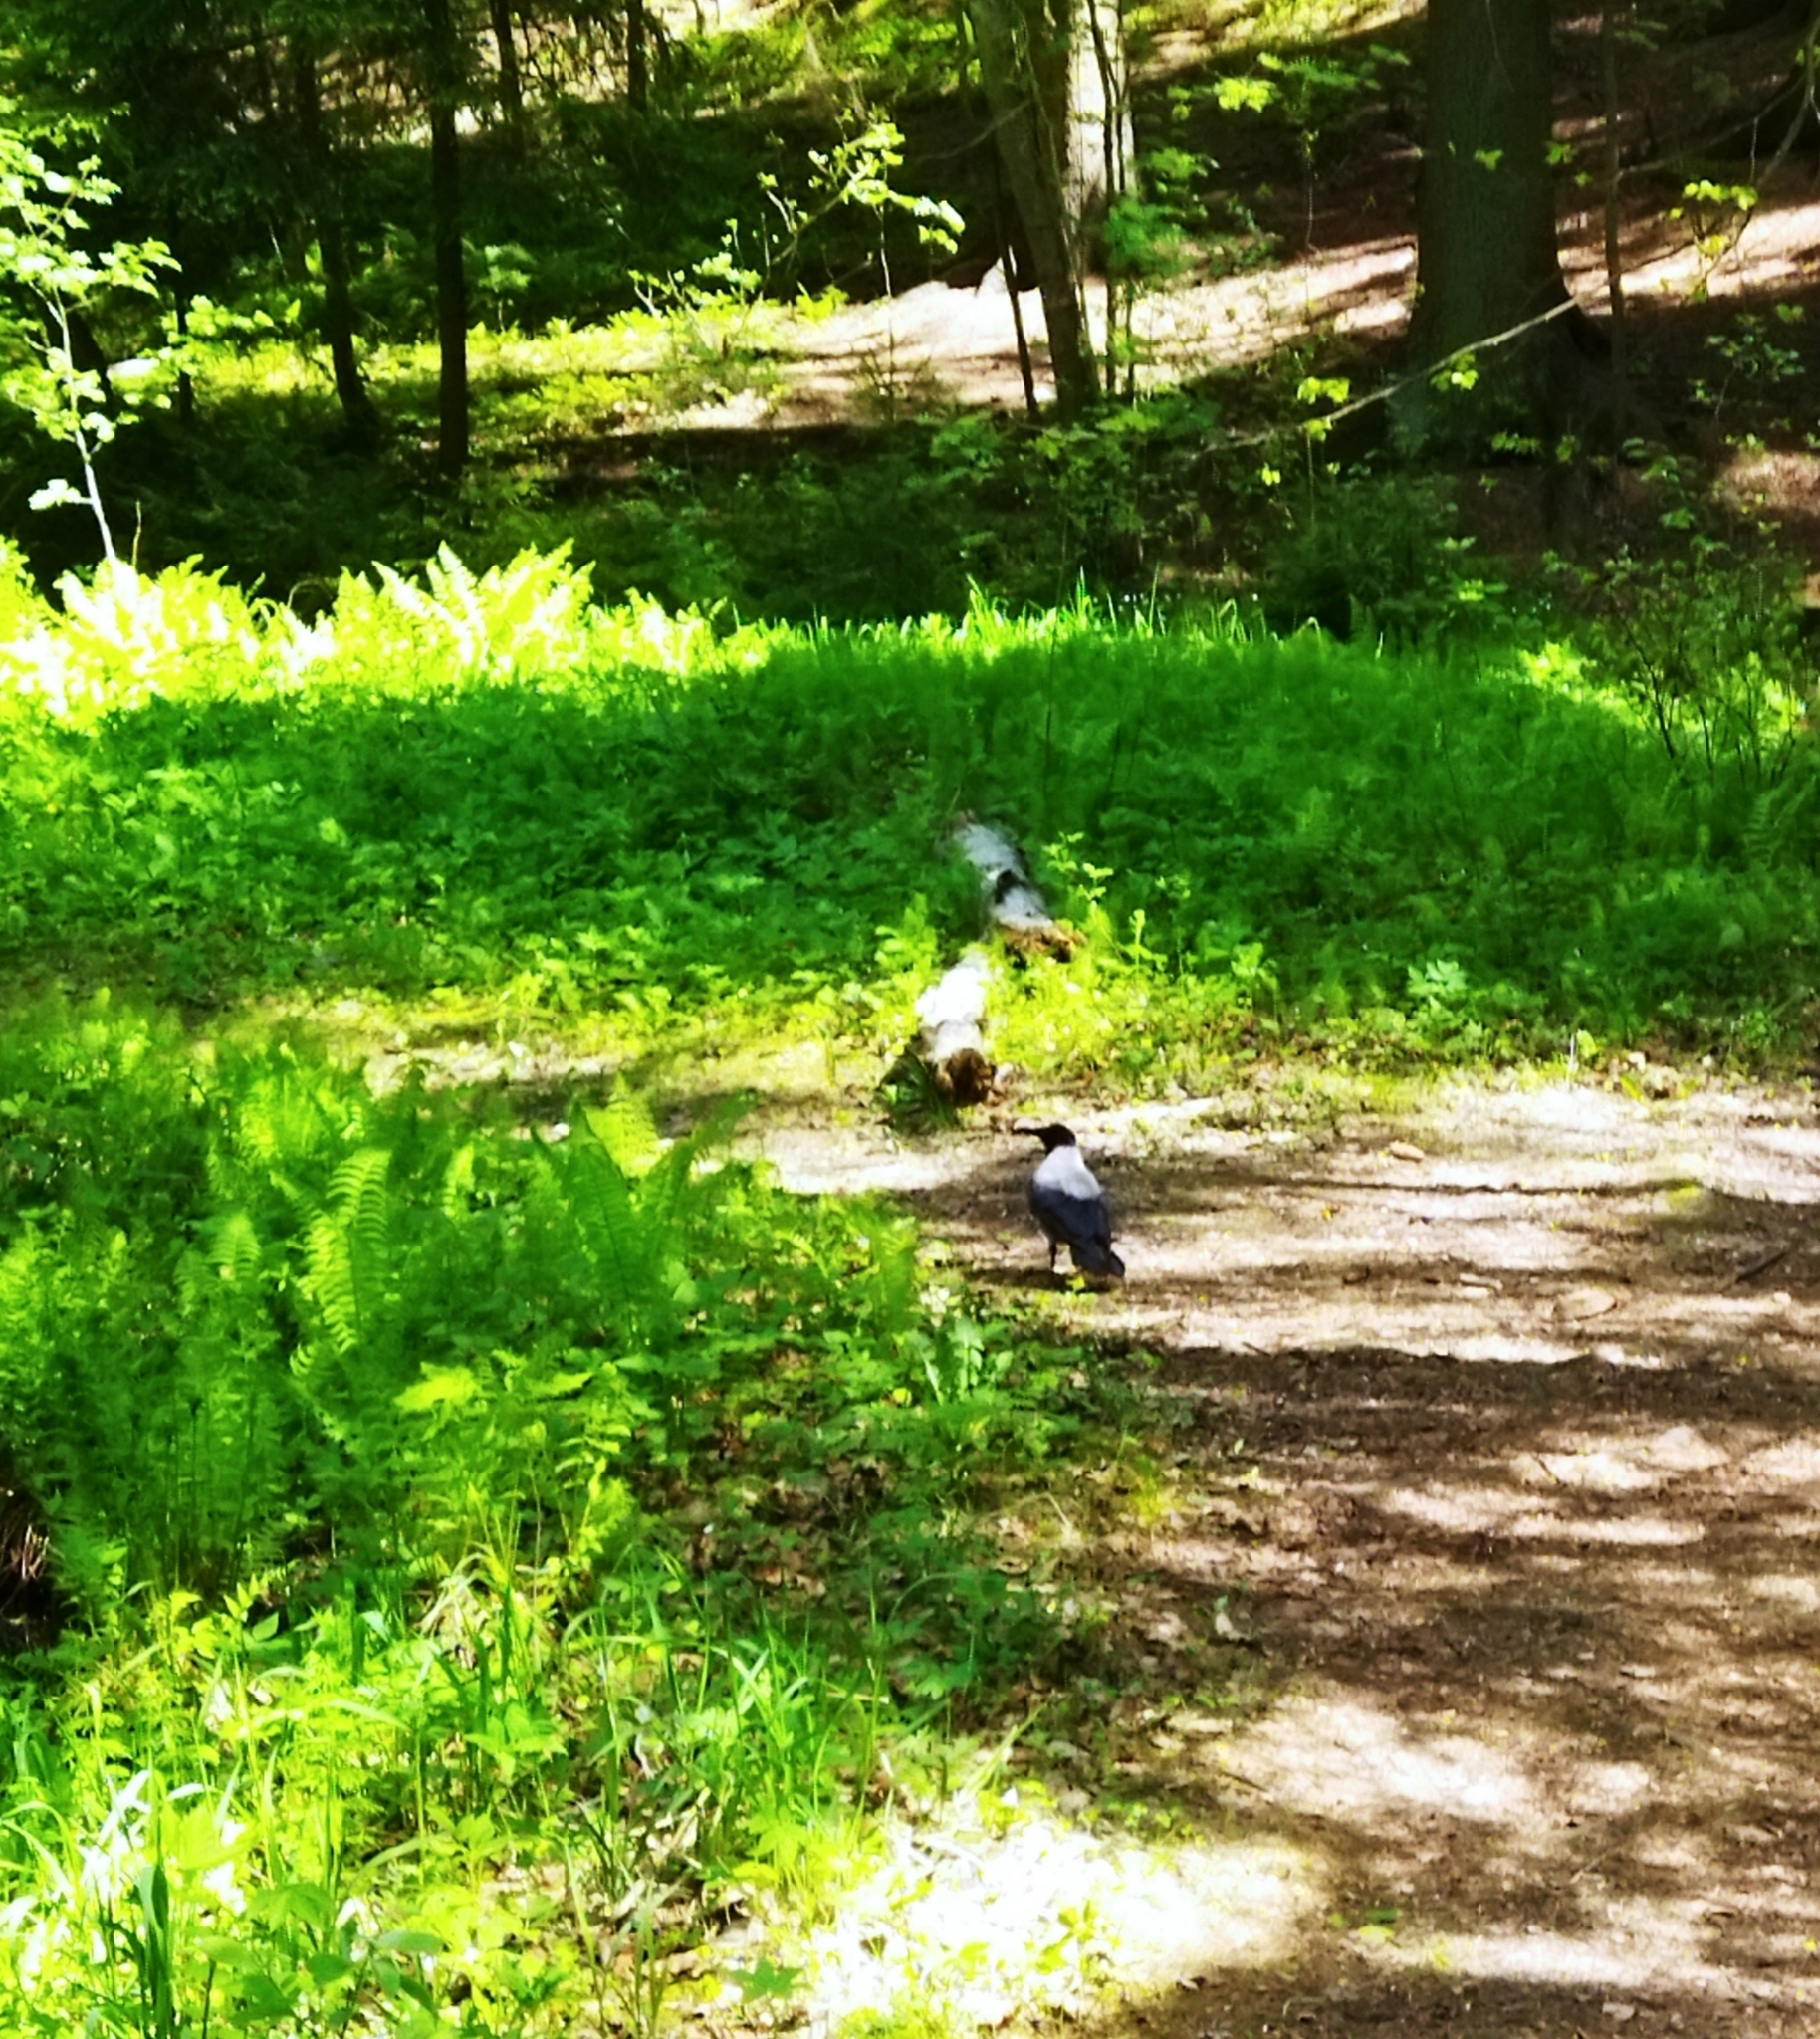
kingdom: Animalia
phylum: Chordata
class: Aves
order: Passeriformes
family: Corvidae
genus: Corvus
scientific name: Corvus cornix
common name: Hooded crow
